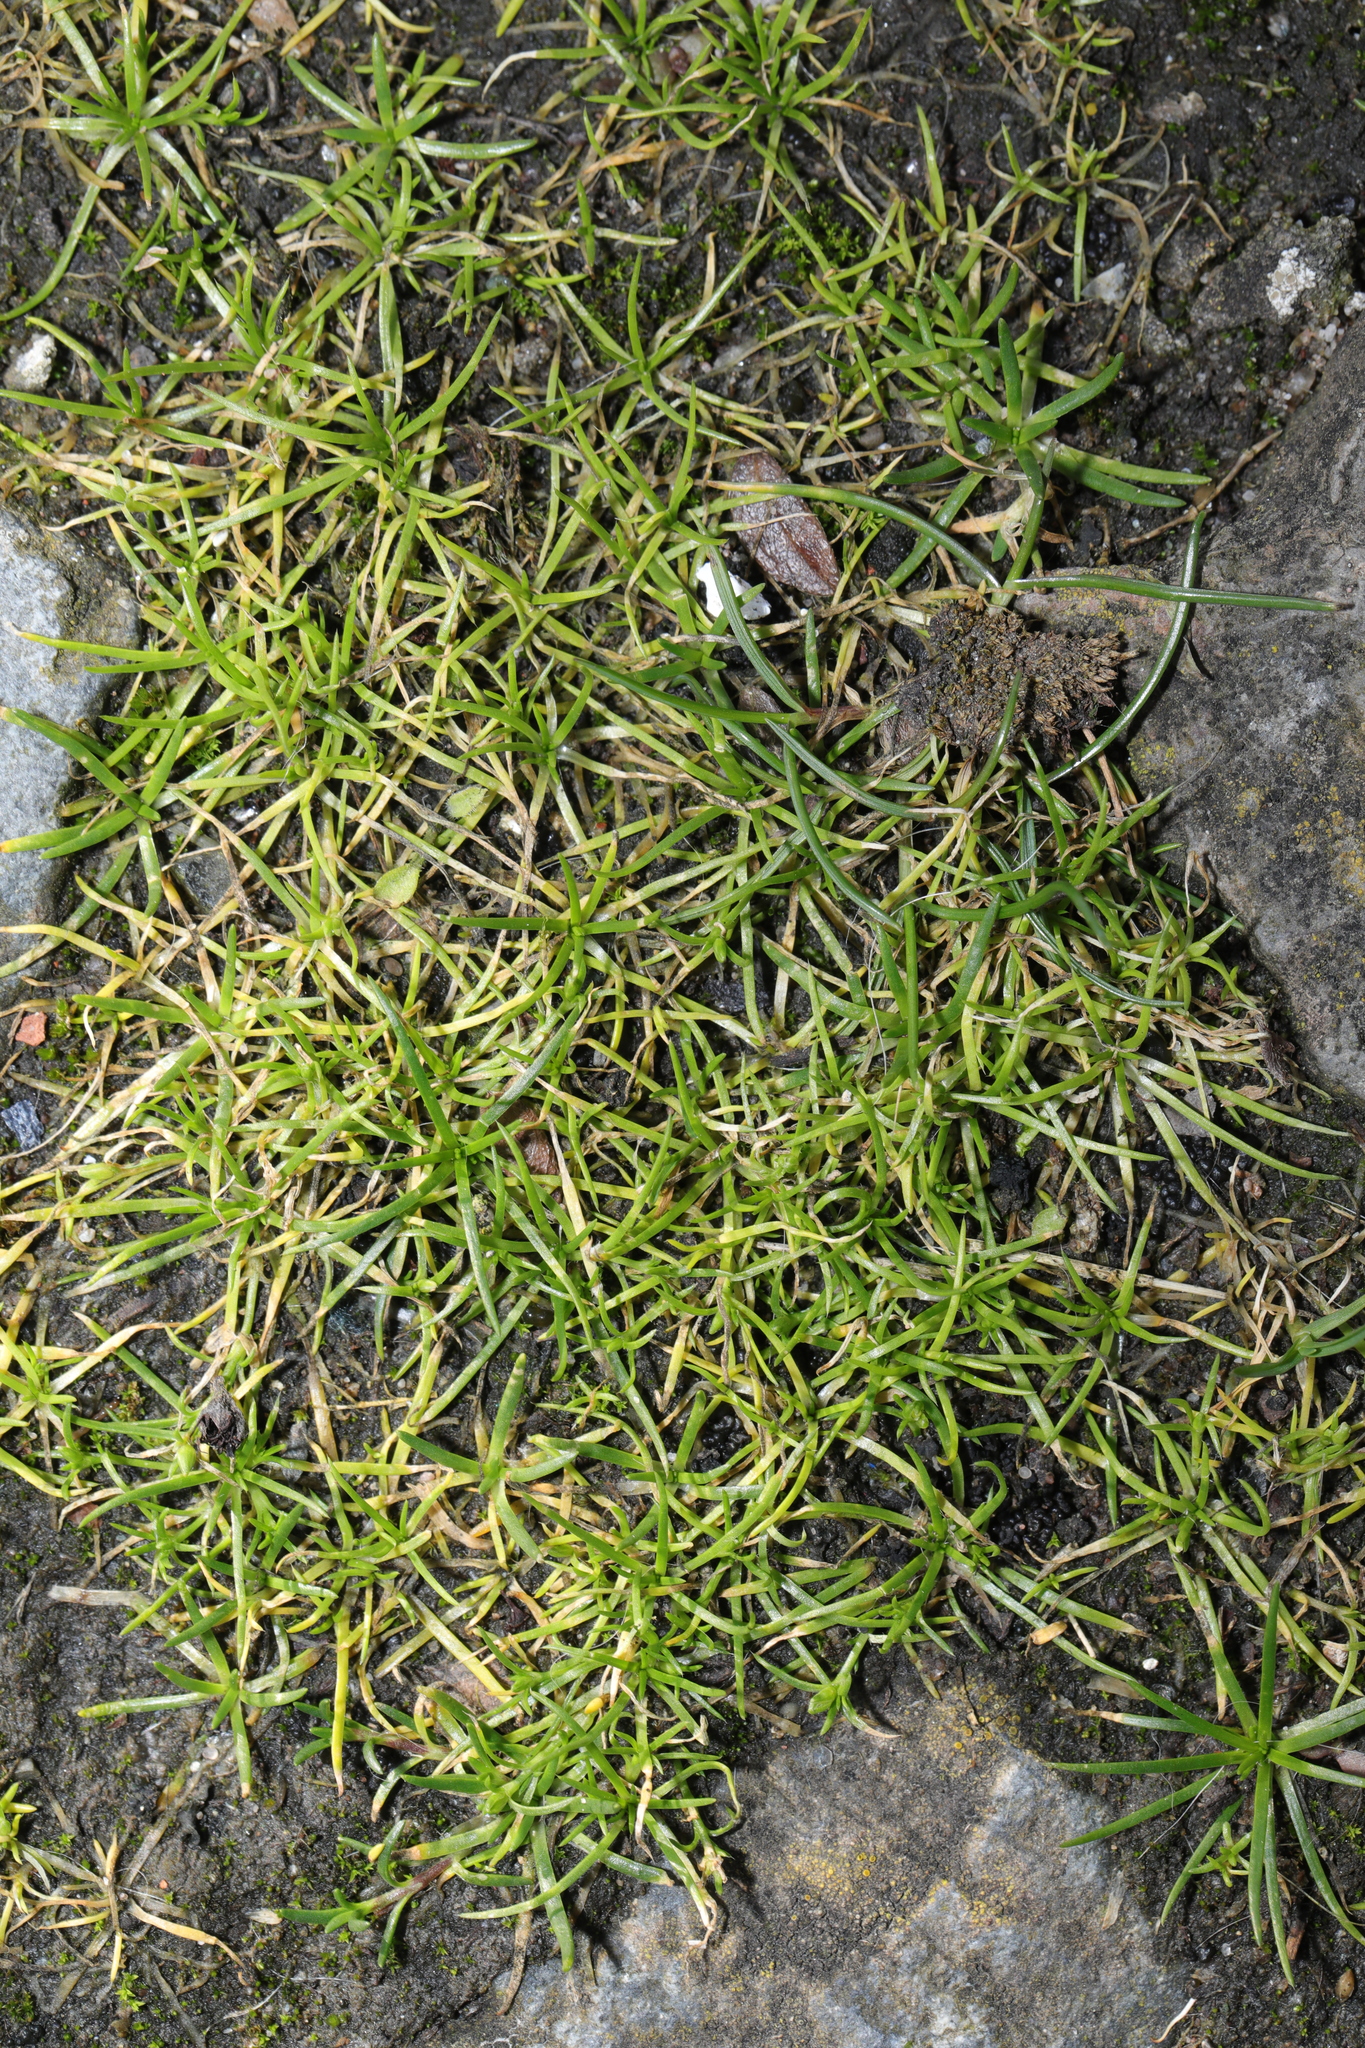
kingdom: Plantae
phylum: Tracheophyta
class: Magnoliopsida
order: Caryophyllales
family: Caryophyllaceae
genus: Sagina
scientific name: Sagina procumbens
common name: Procumbent pearlwort
